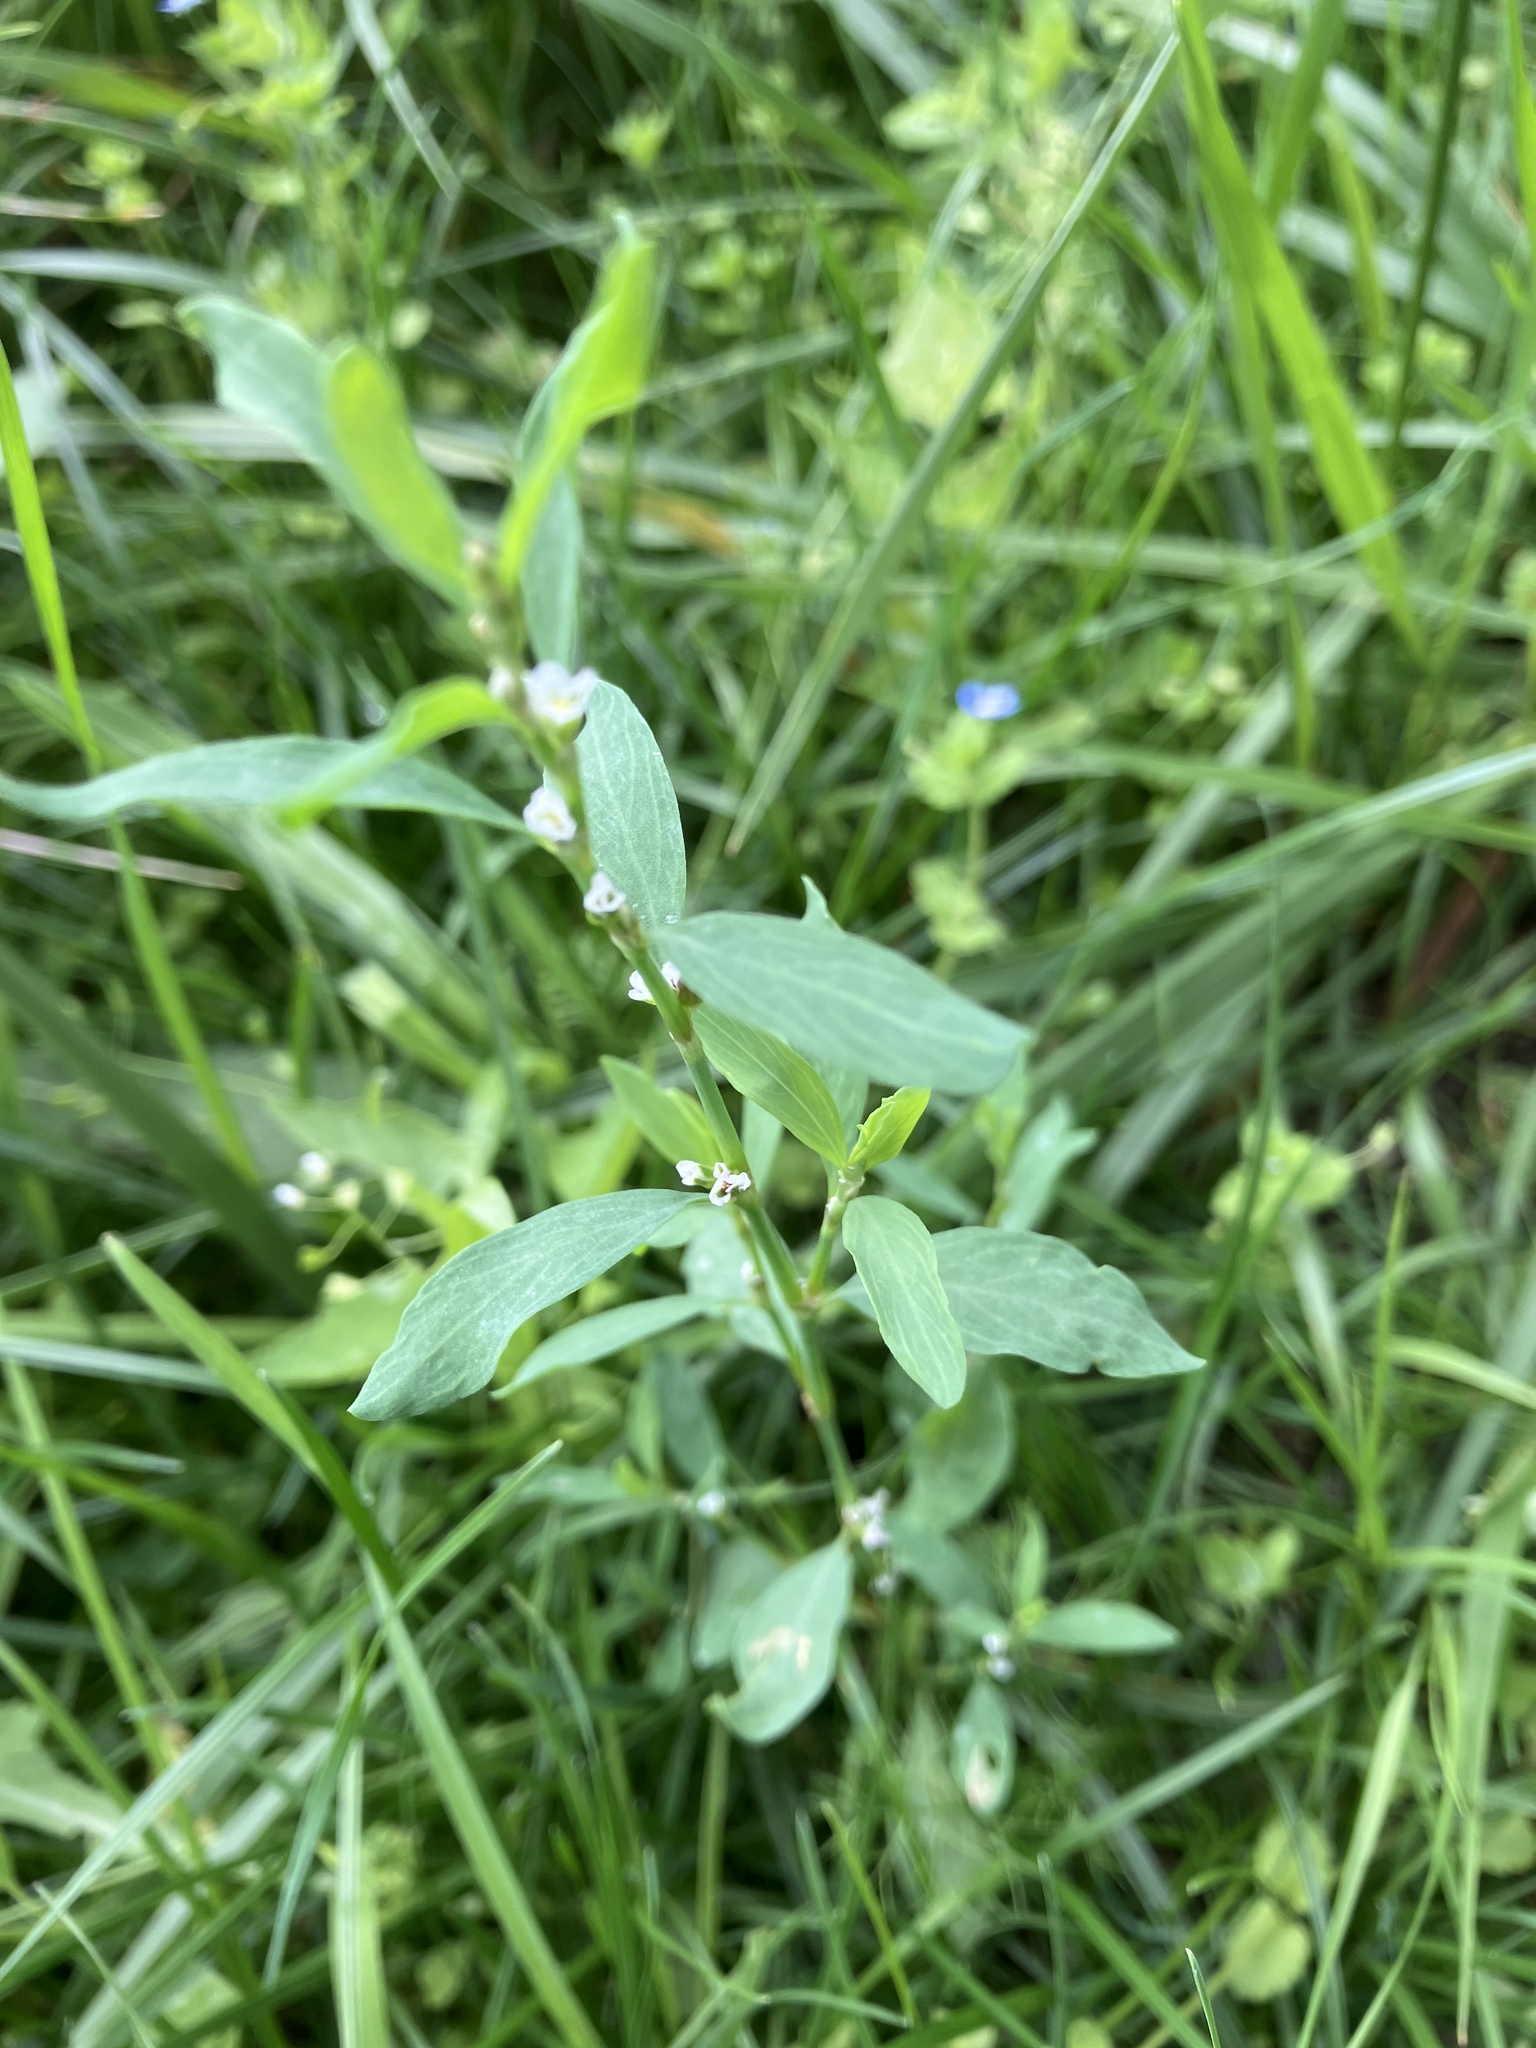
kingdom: Plantae
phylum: Tracheophyta
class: Magnoliopsida
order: Caryophyllales
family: Polygonaceae
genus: Polygonum
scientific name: Polygonum aviculare
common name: Prostrate knotweed
